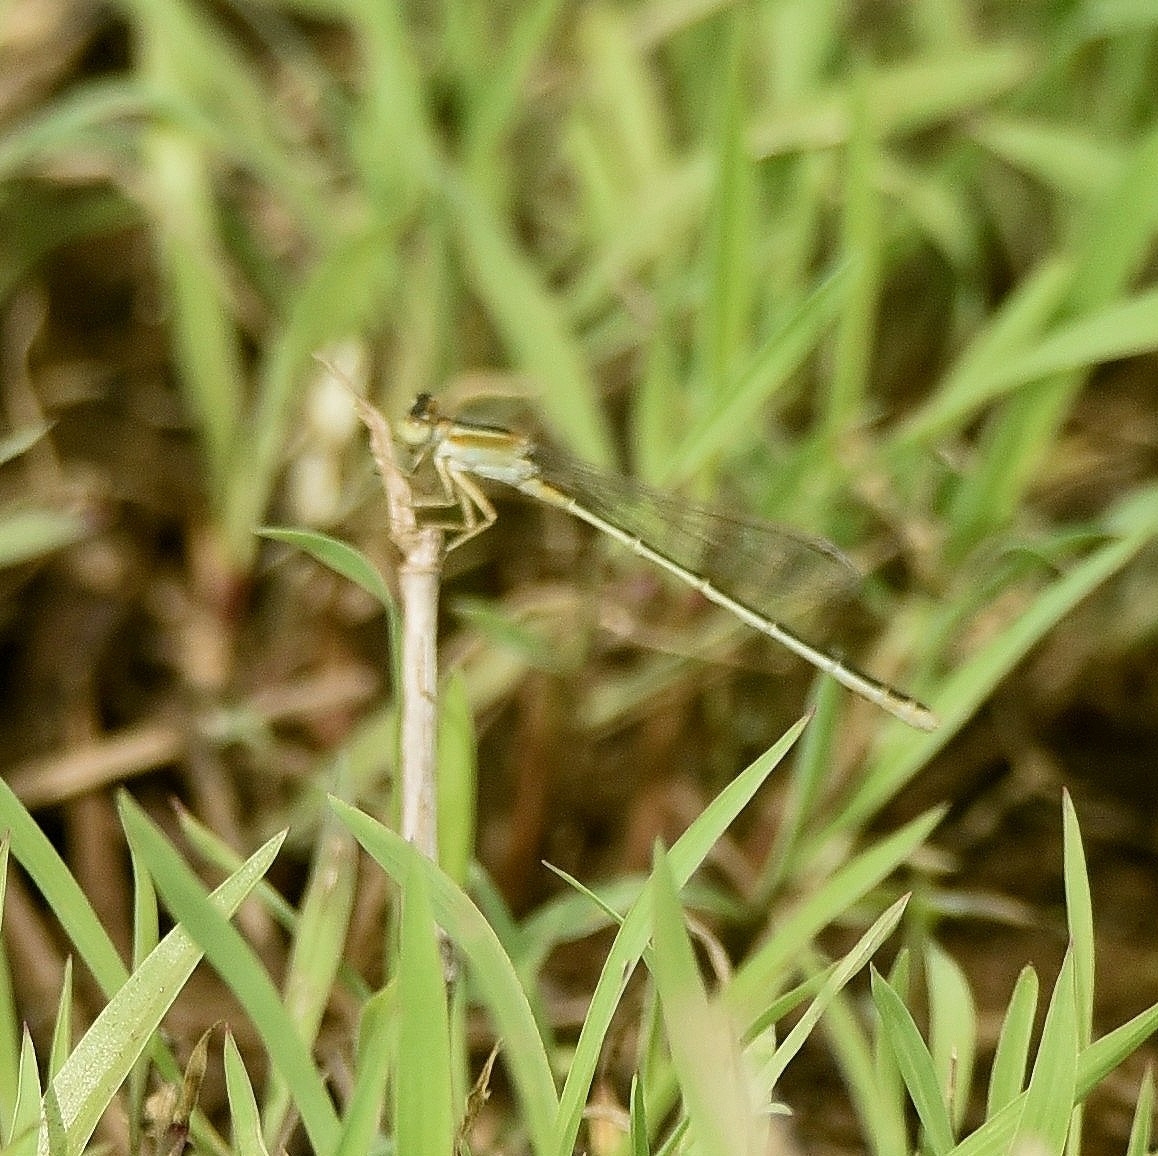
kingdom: Animalia
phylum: Arthropoda
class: Insecta
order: Odonata
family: Coenagrionidae
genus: Ischnura
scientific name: Ischnura senegalensis
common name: Tropical bluetail
